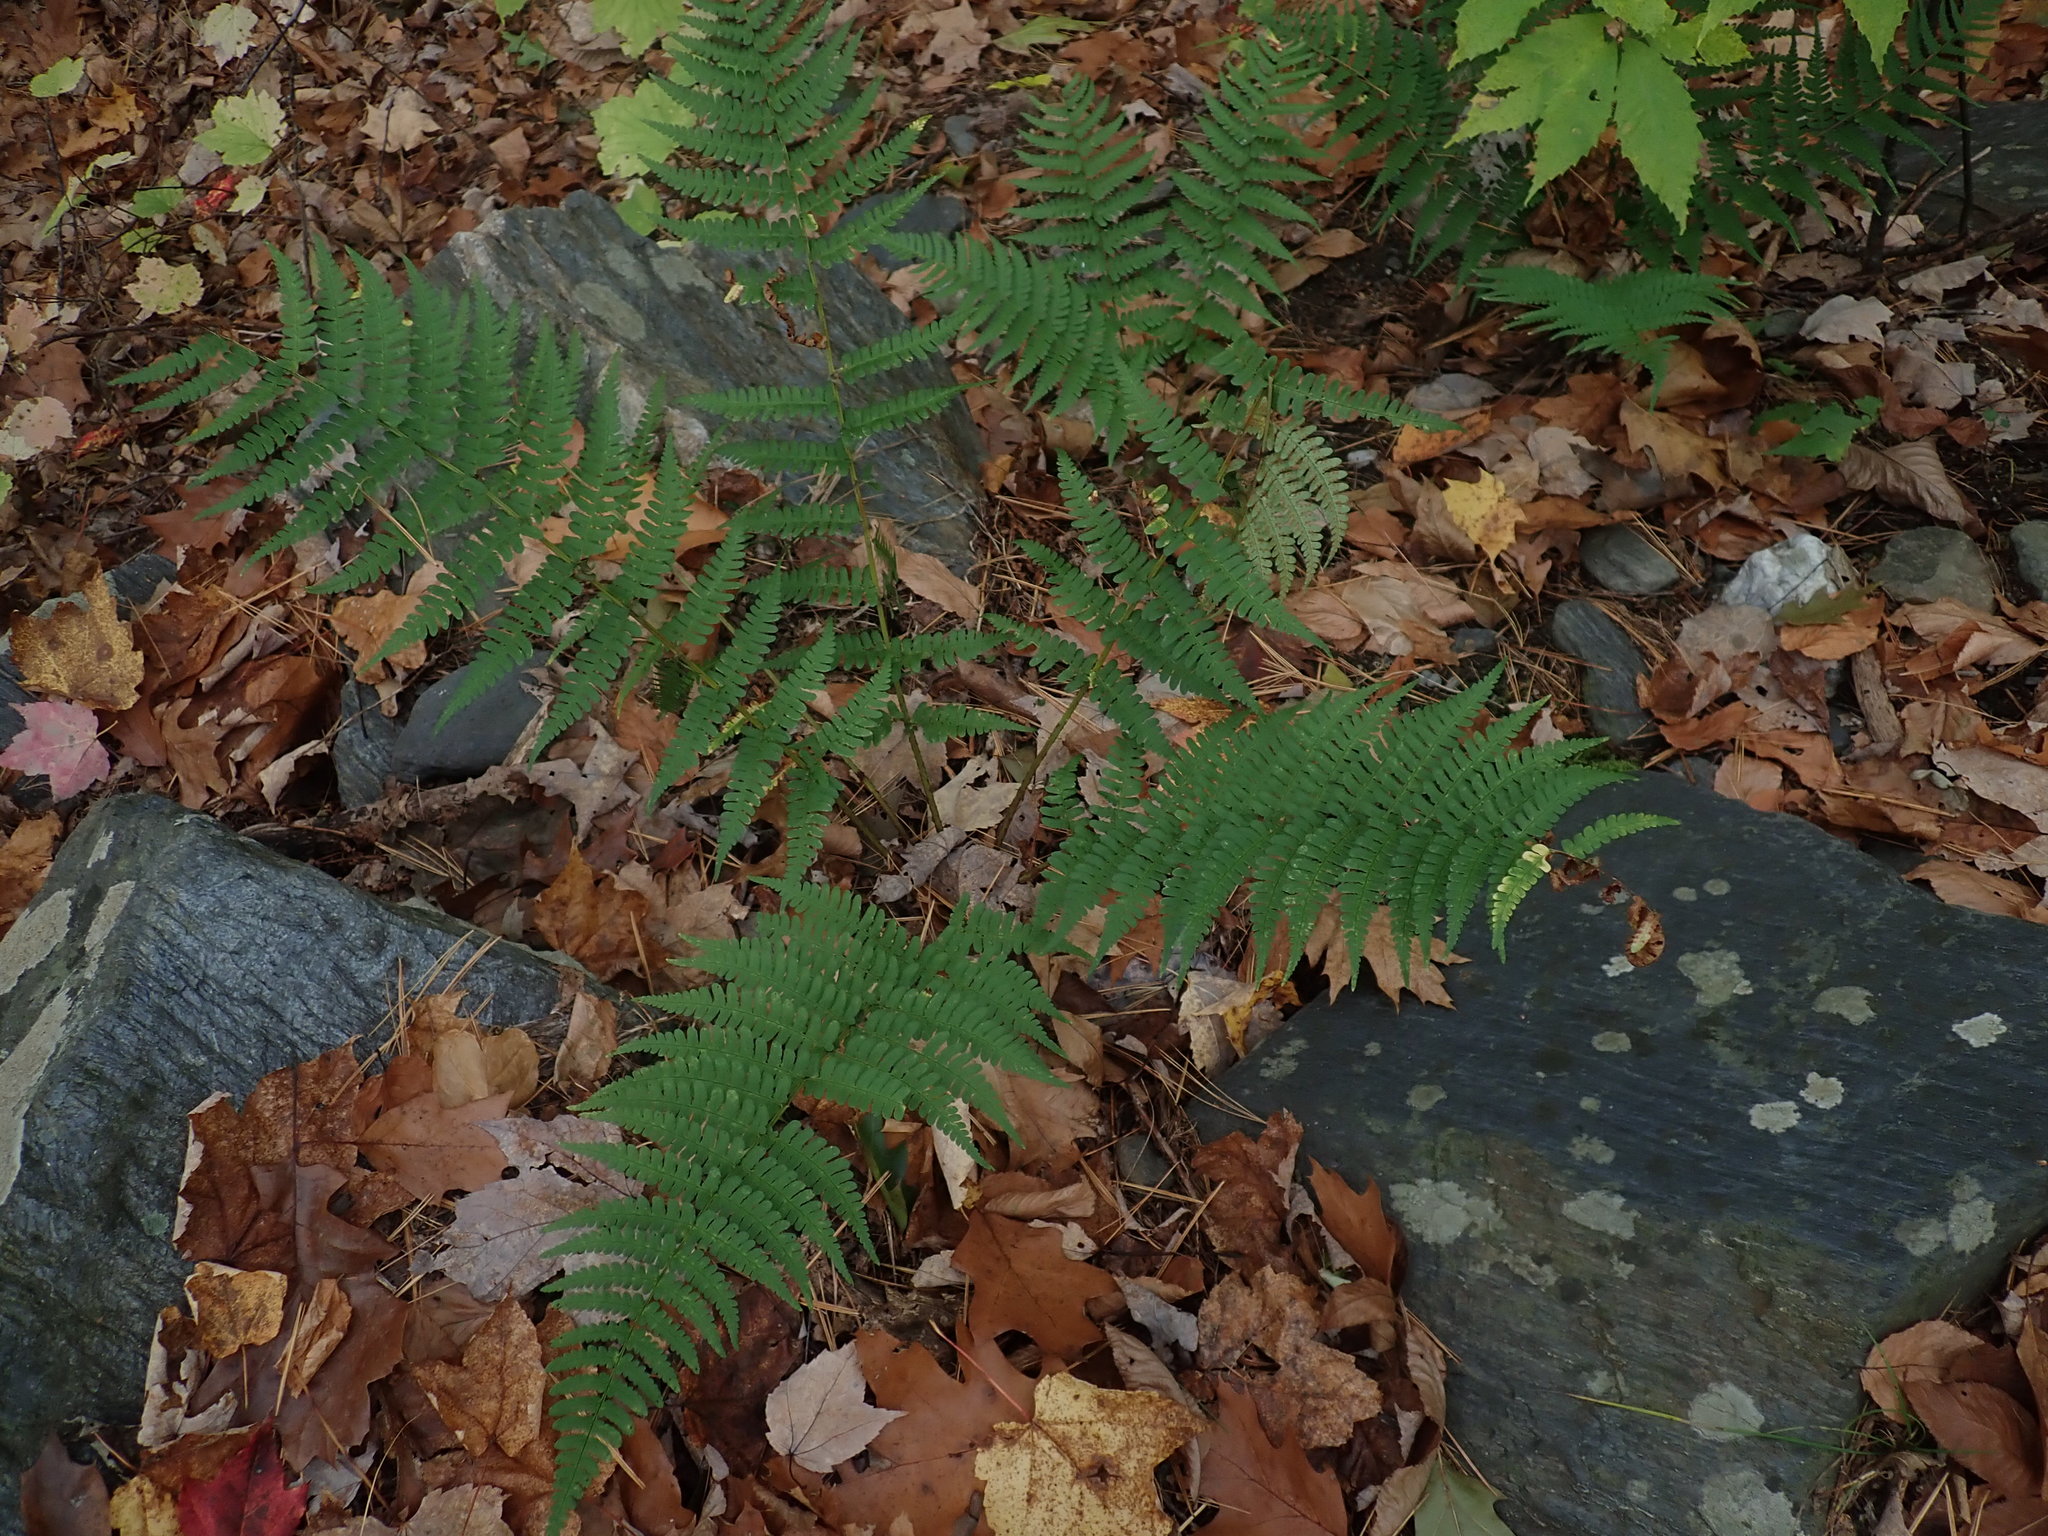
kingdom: Plantae
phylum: Tracheophyta
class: Polypodiopsida
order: Polypodiales
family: Dryopteridaceae
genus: Dryopteris
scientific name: Dryopteris marginalis
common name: Marginal wood fern
